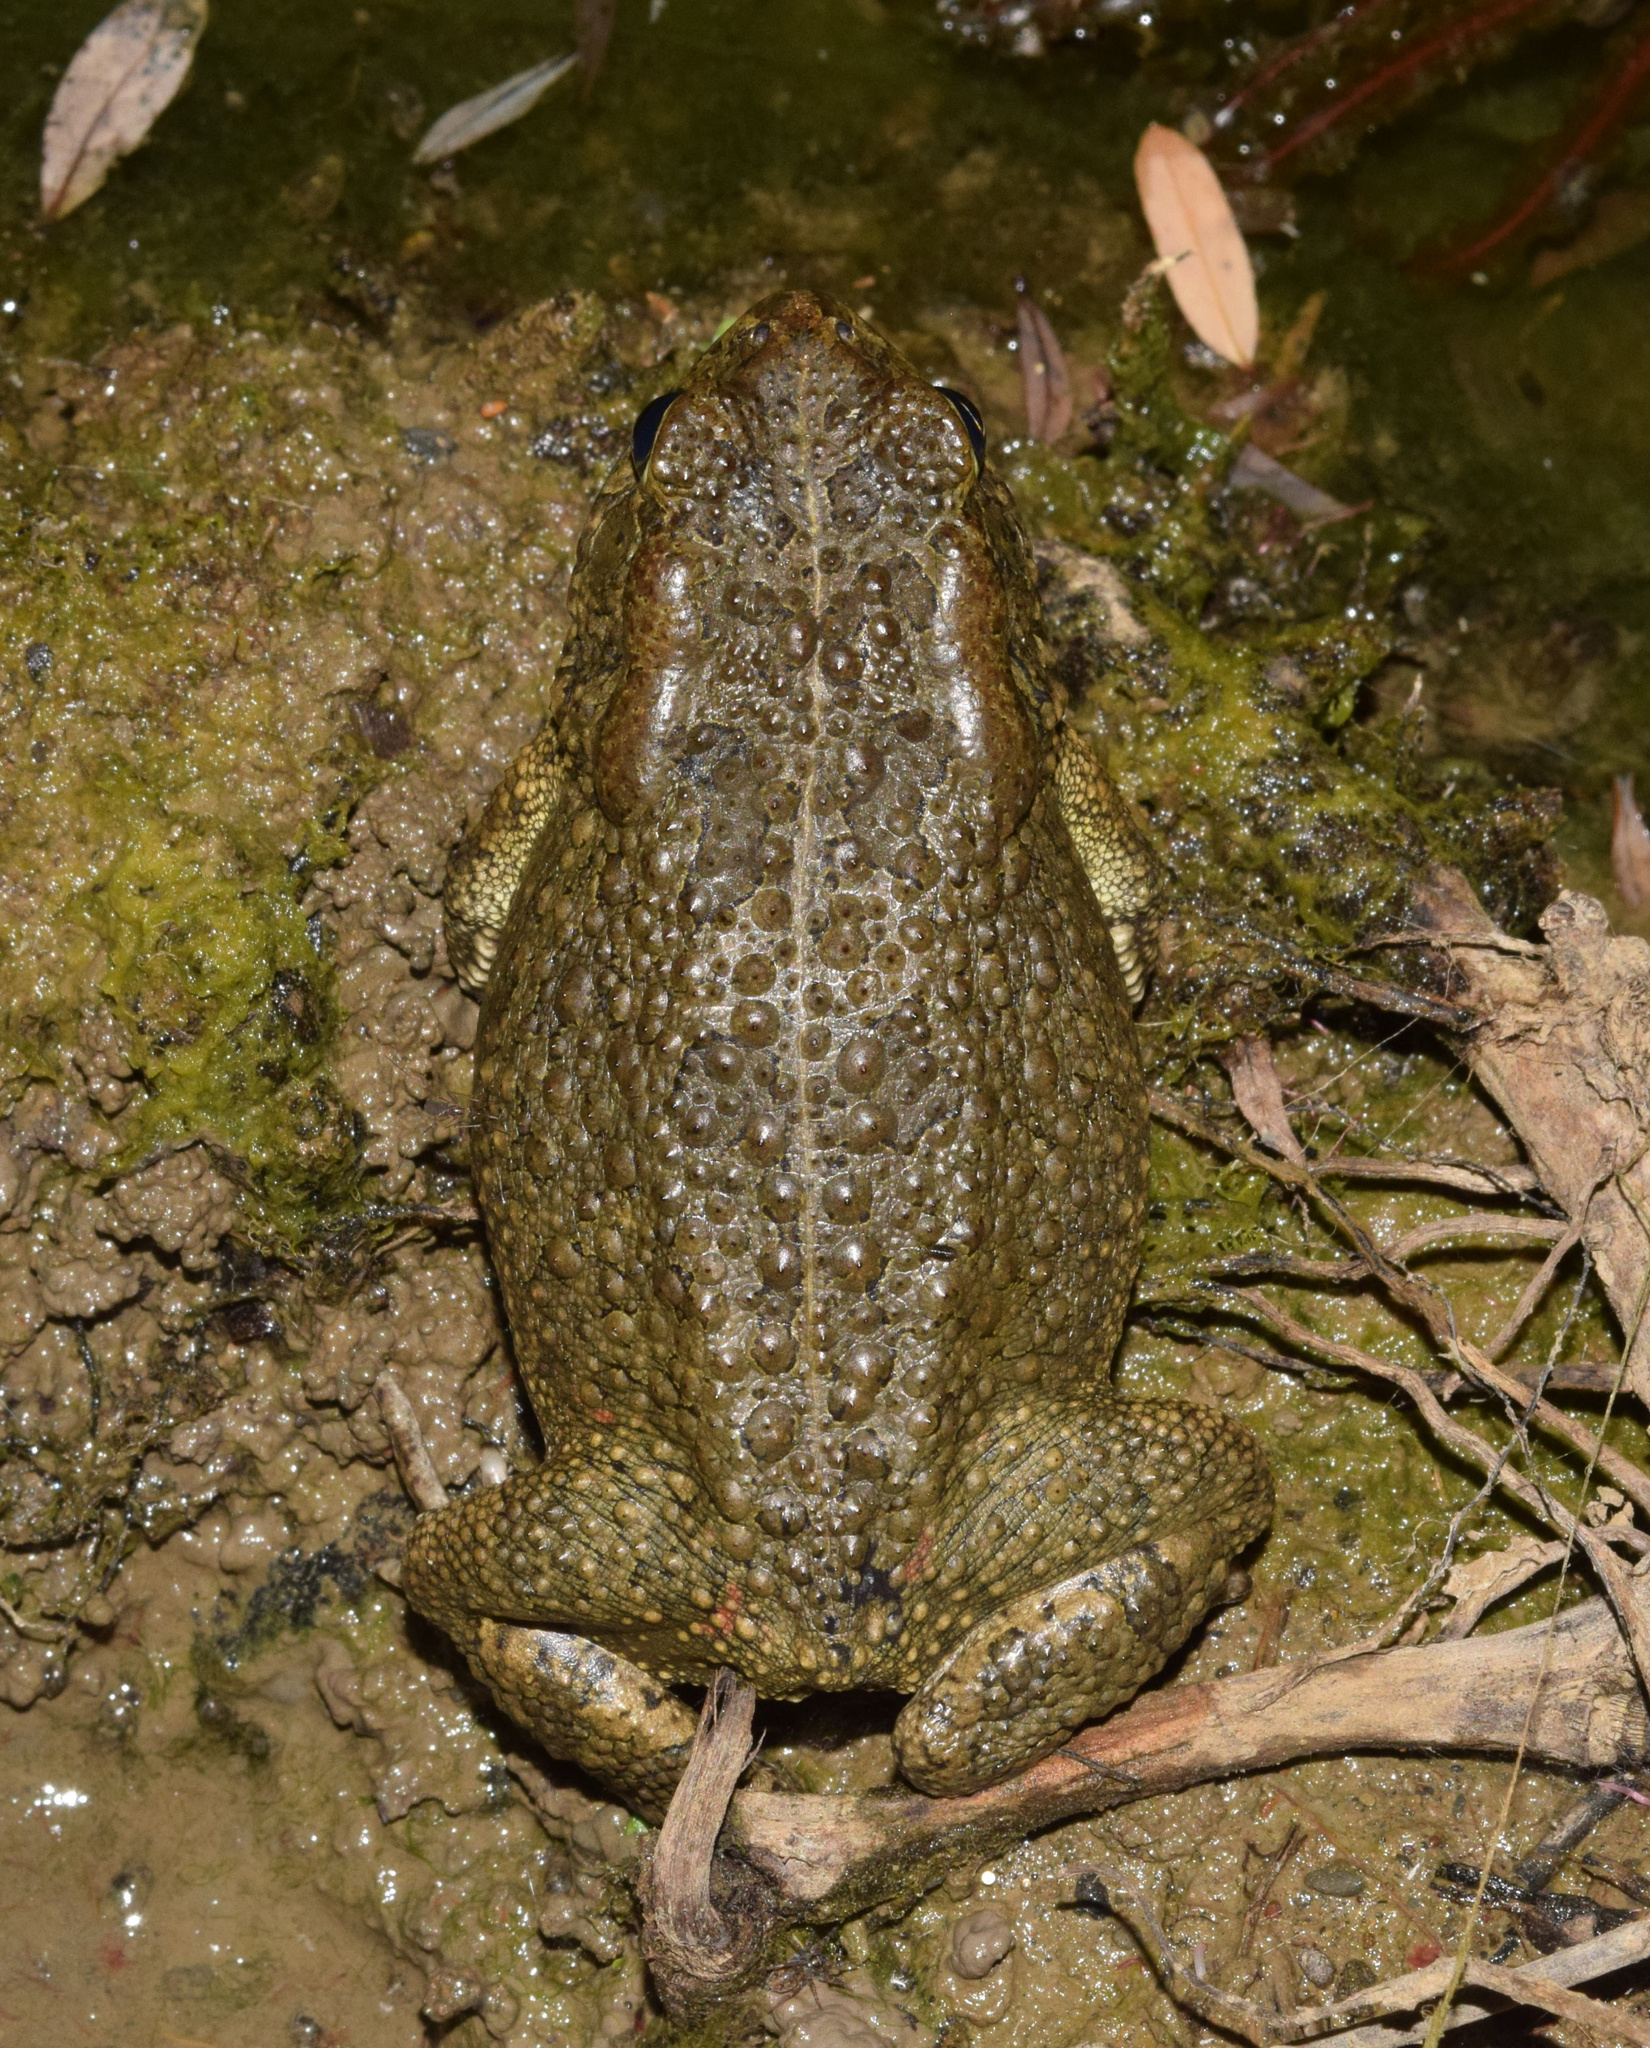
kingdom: Animalia
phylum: Chordata
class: Amphibia
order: Anura
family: Bufonidae
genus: Sclerophrys
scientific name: Sclerophrys gutturalis
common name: African common toad
